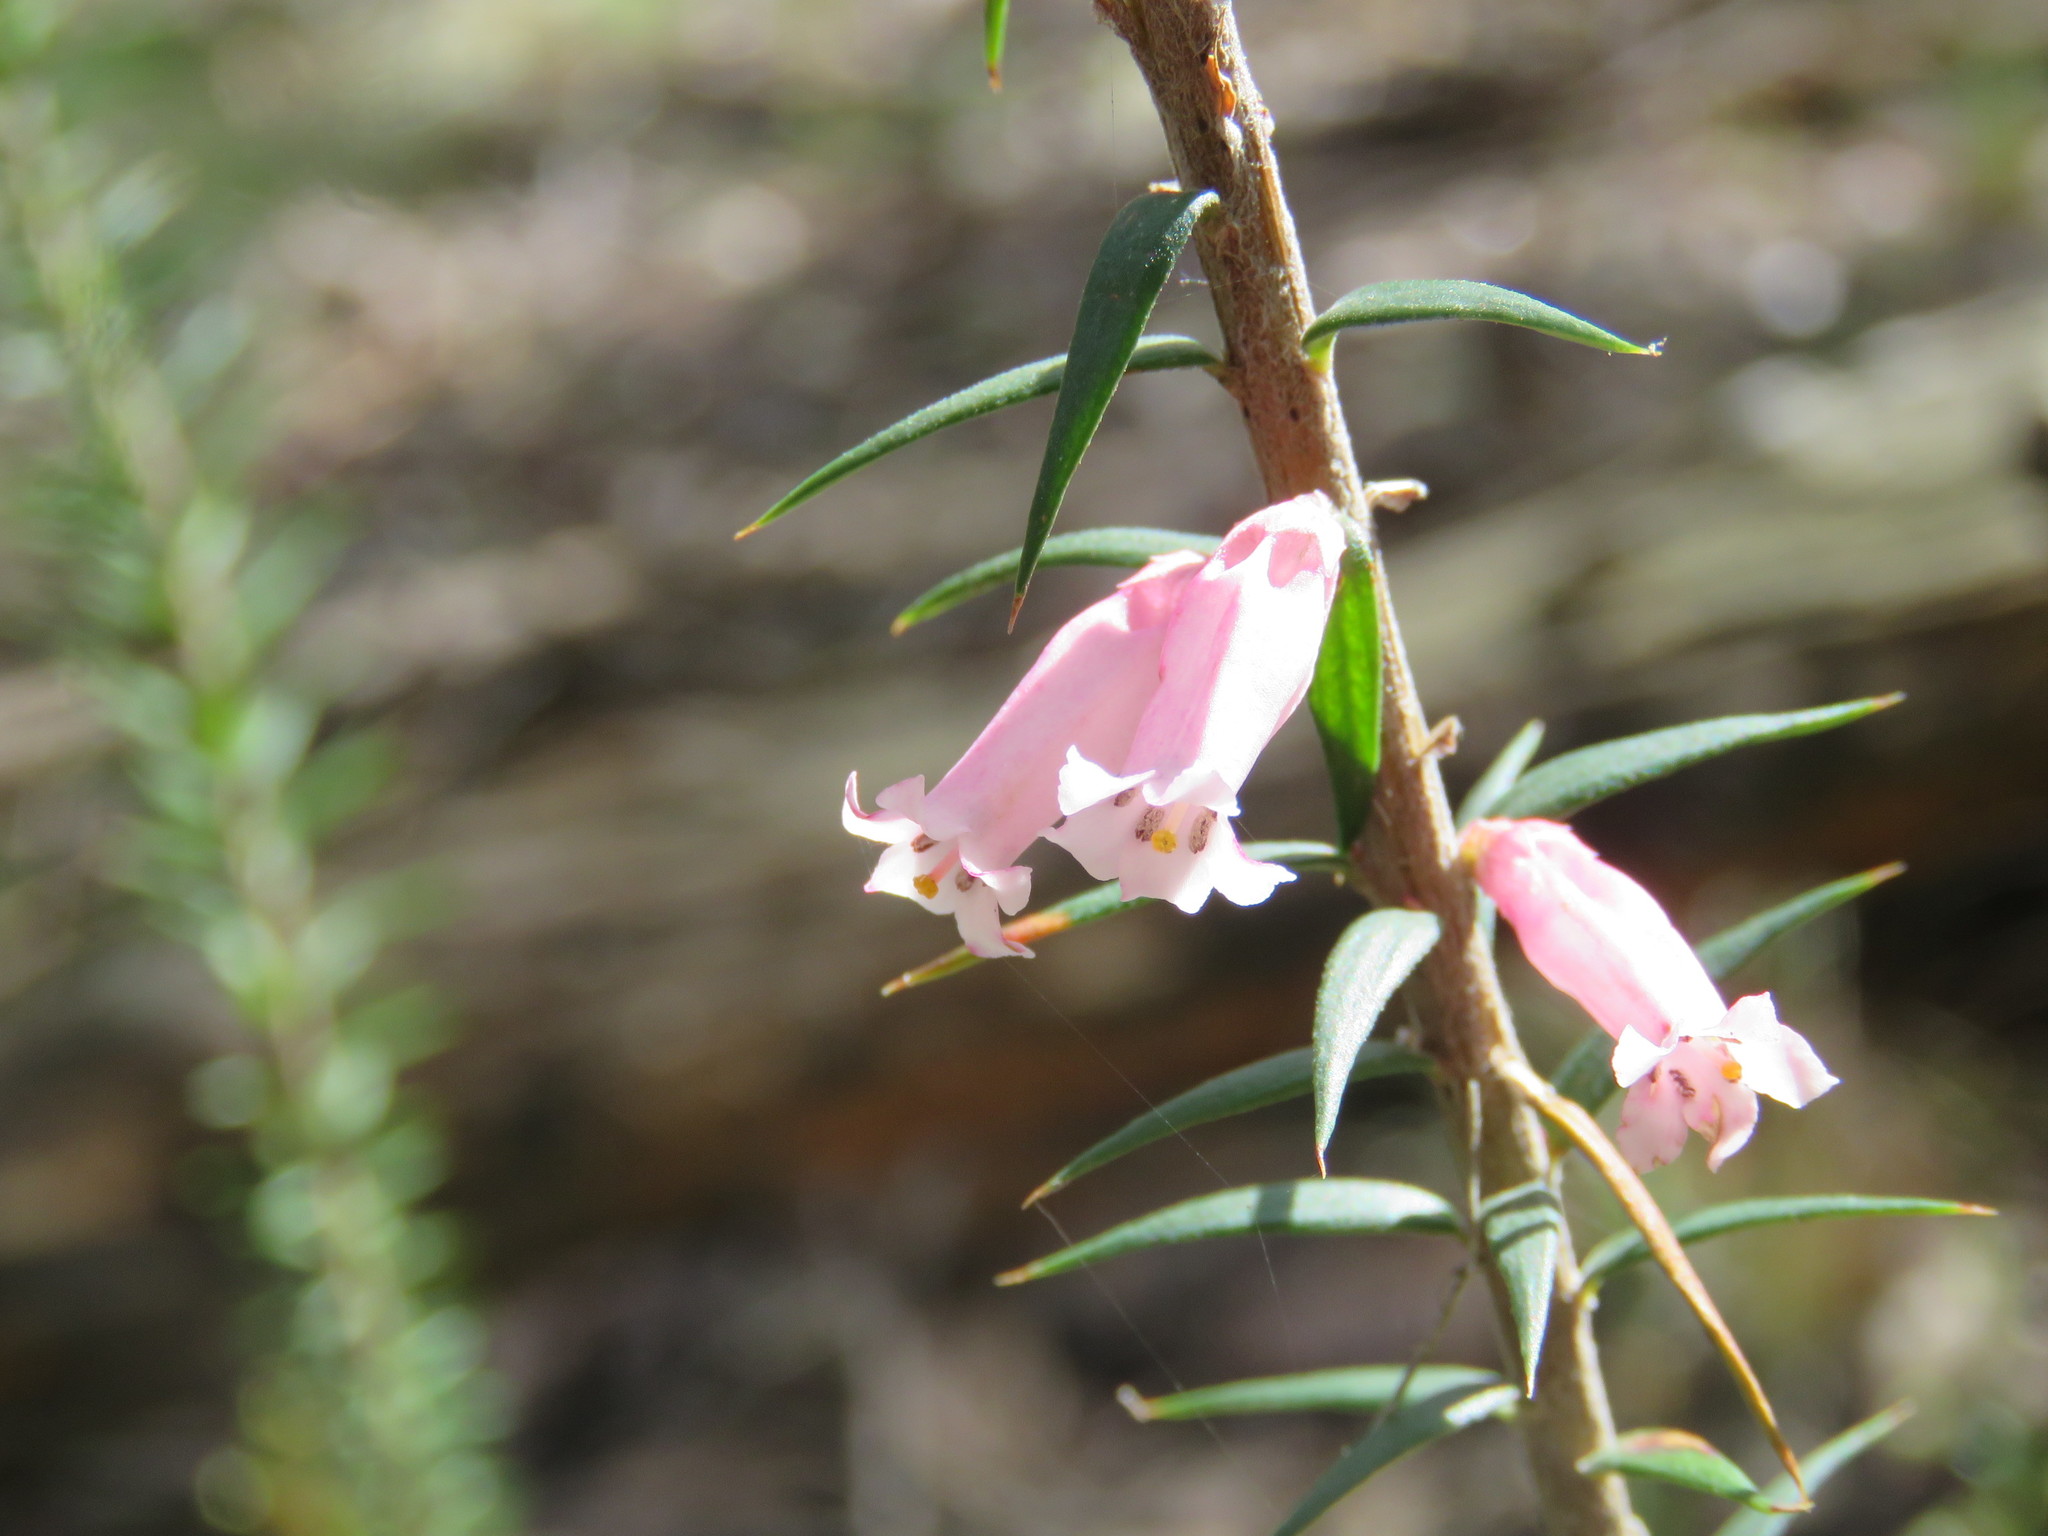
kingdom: Plantae
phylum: Tracheophyta
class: Magnoliopsida
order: Ericales
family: Ericaceae
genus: Epacris
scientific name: Epacris impressa
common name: Common-heath
